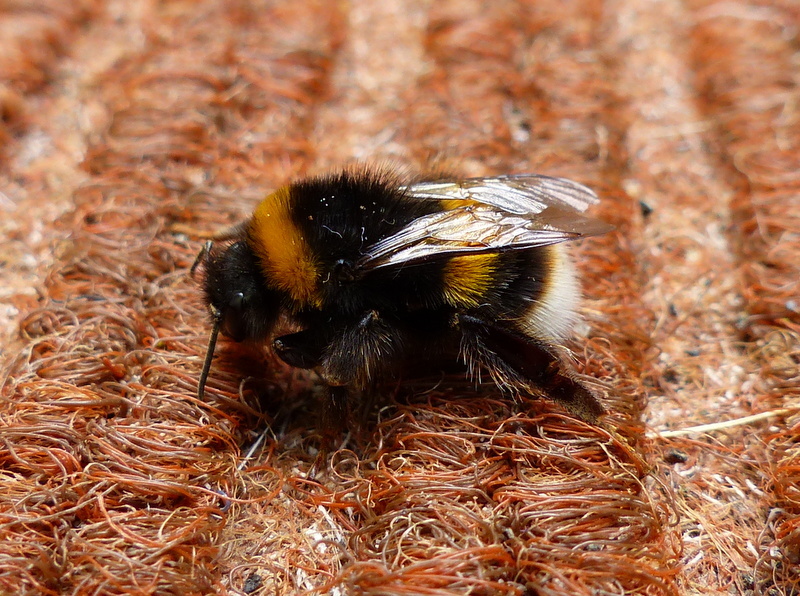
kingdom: Animalia
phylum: Arthropoda
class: Insecta
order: Hymenoptera
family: Apidae
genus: Bombus
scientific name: Bombus terrestris
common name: Buff-tailed bumblebee
